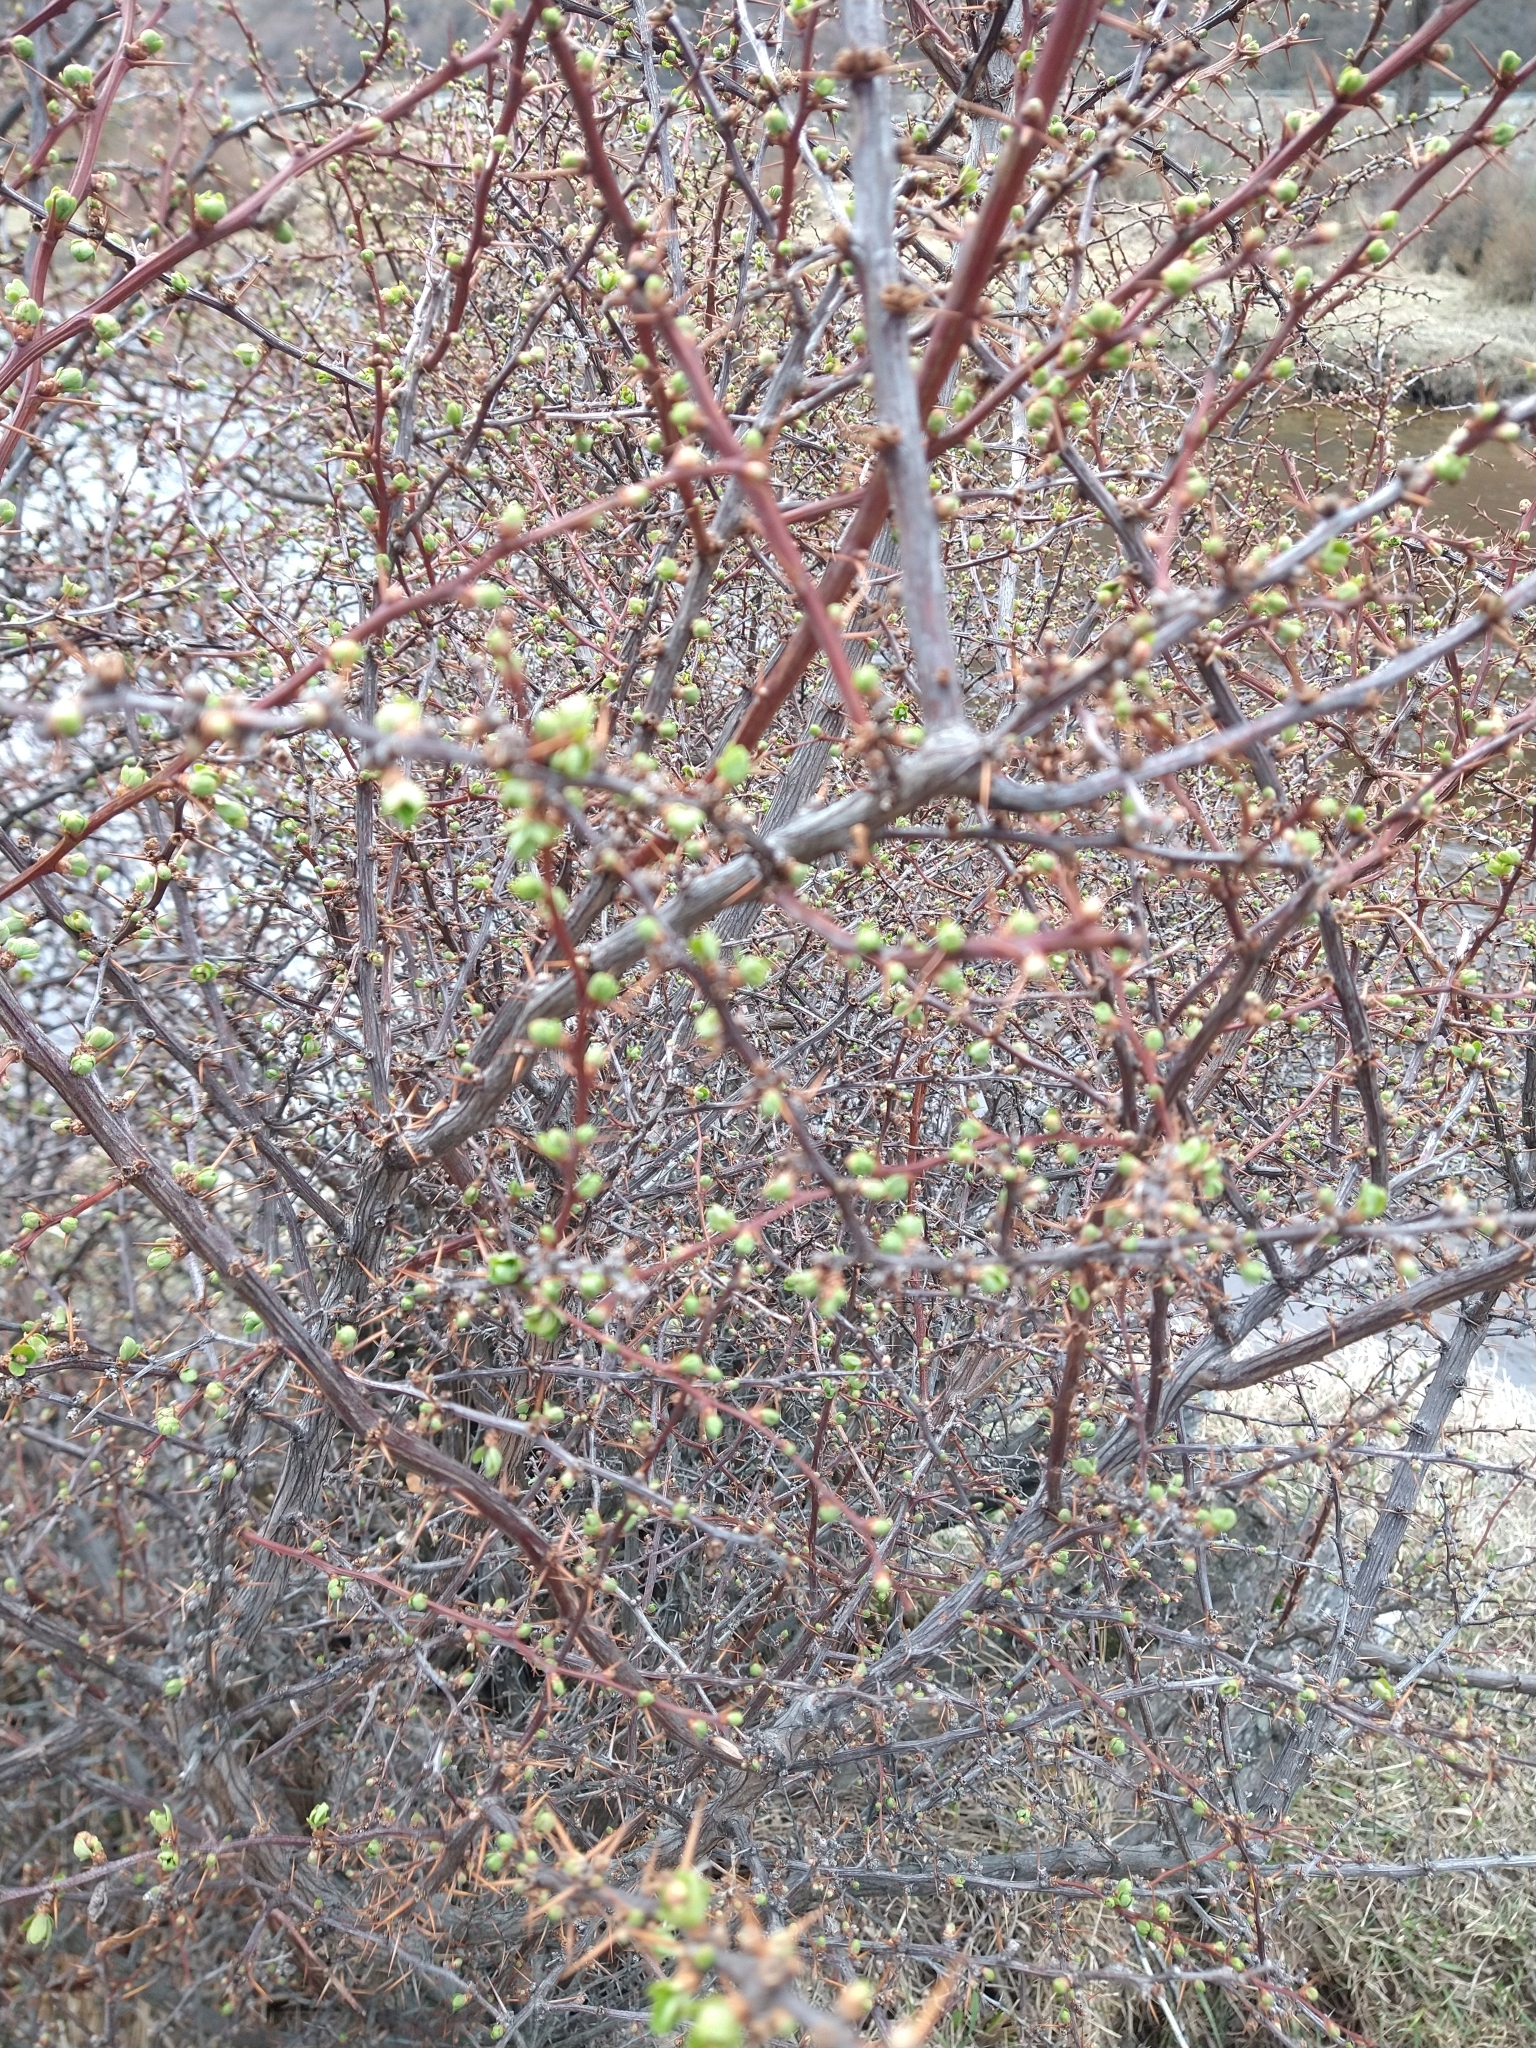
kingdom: Plantae
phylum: Tracheophyta
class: Magnoliopsida
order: Ranunculales
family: Berberidaceae
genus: Berberis
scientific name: Berberis microphylla
